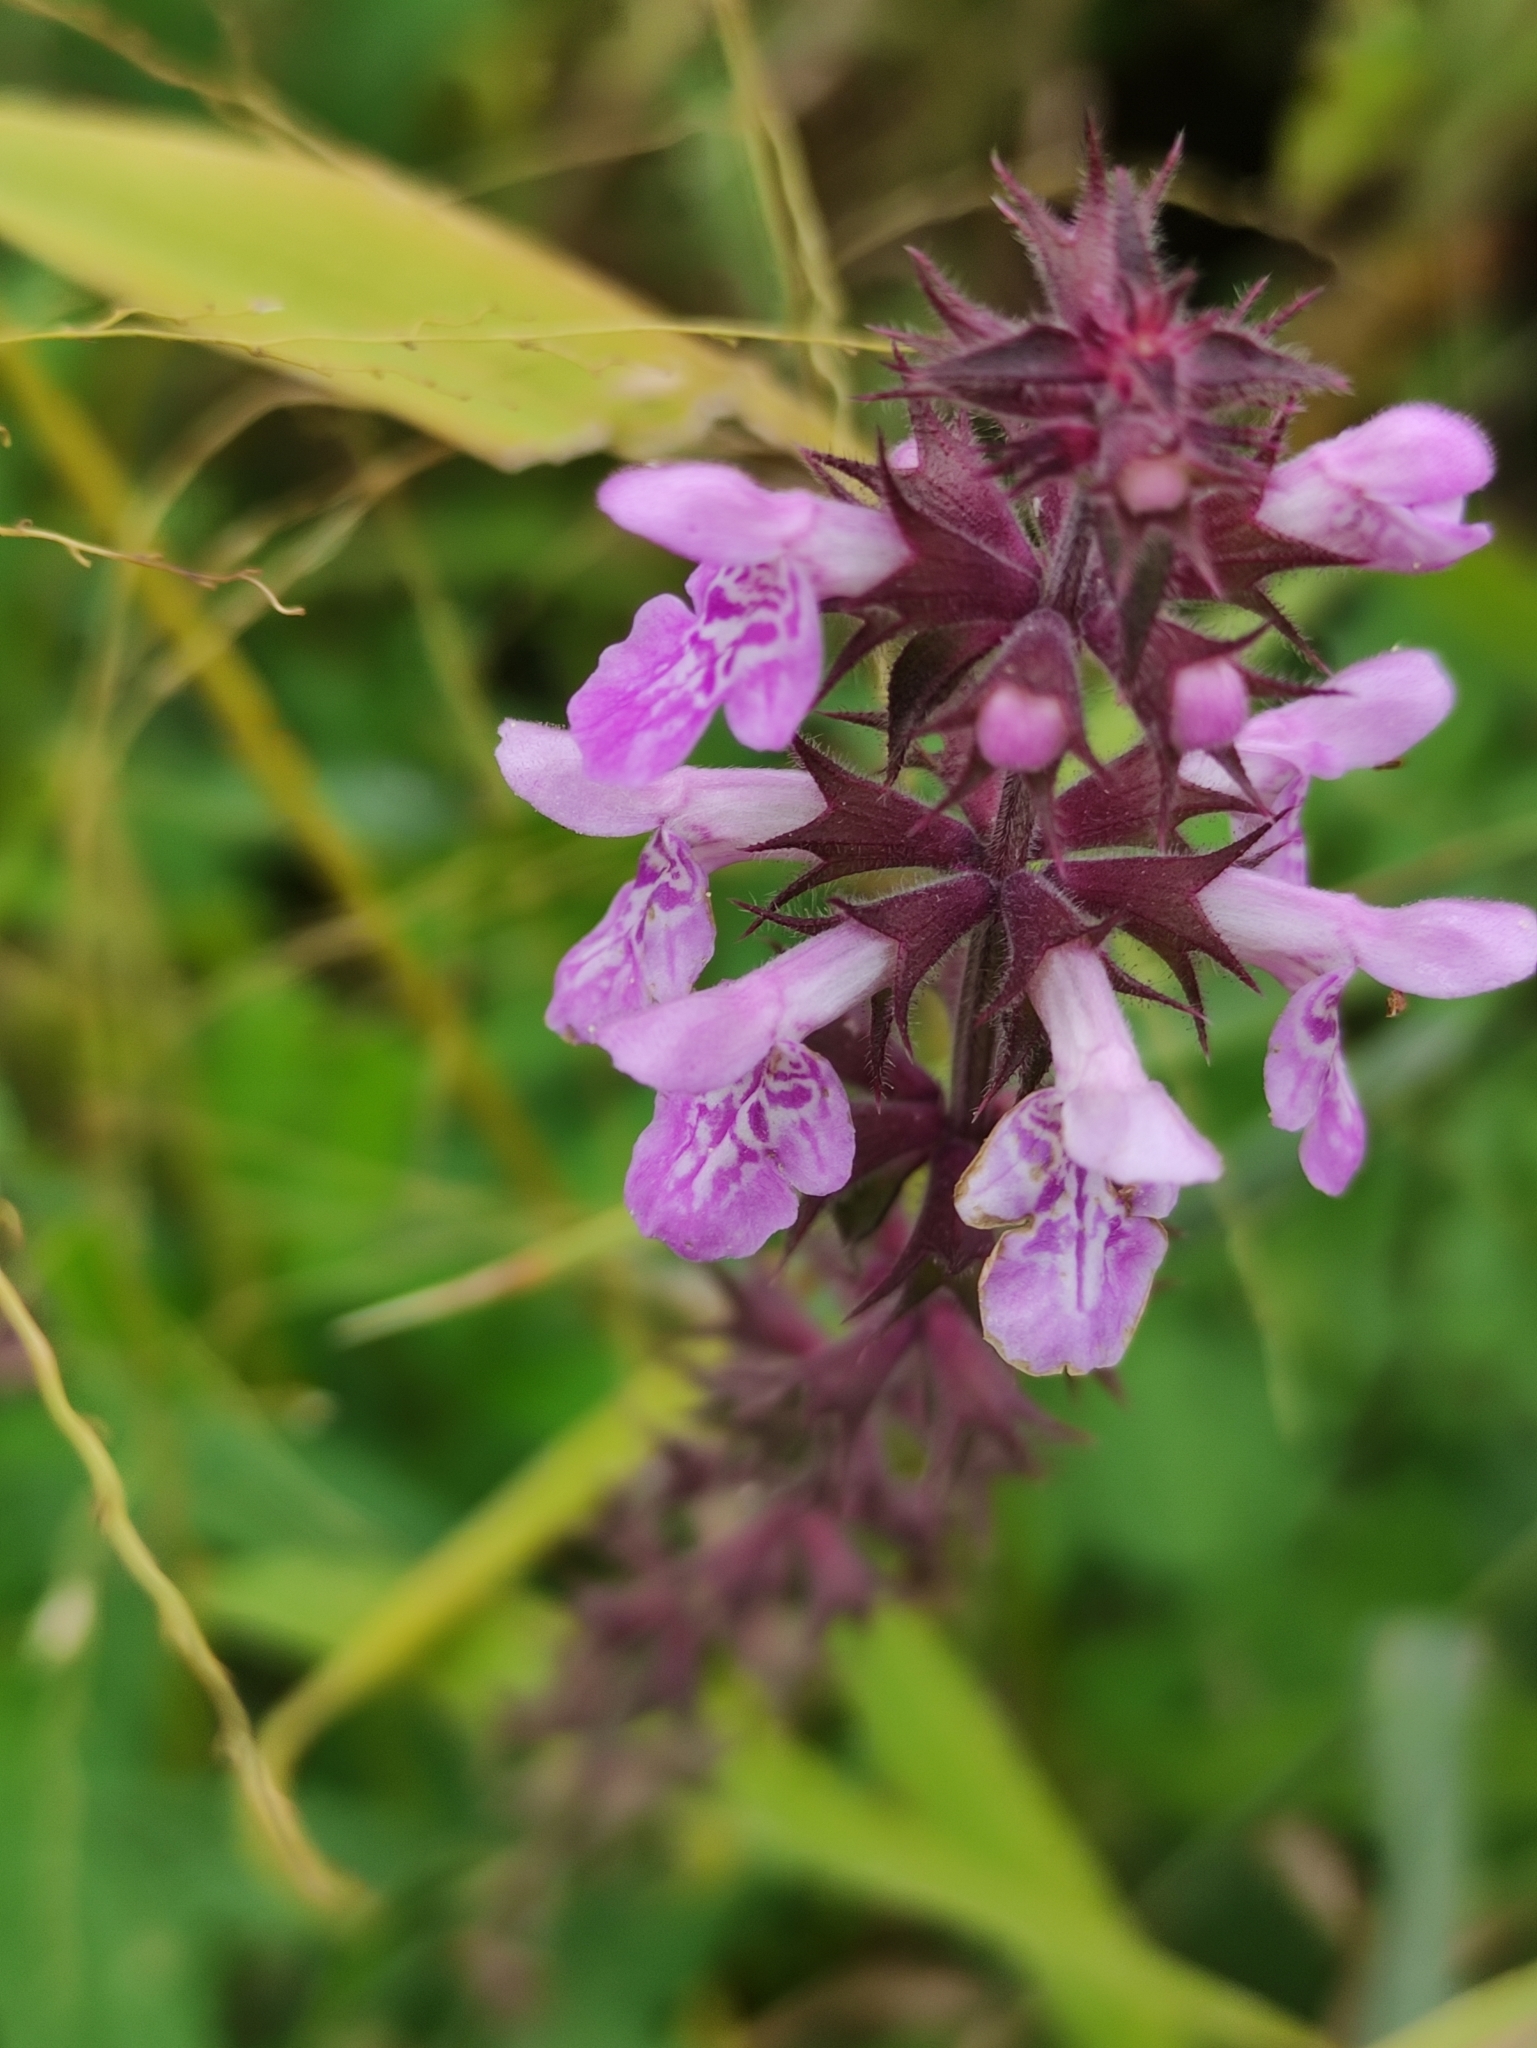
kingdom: Plantae
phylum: Tracheophyta
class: Magnoliopsida
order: Lamiales
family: Lamiaceae
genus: Stachys
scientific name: Stachys palustris
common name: Marsh woundwort
